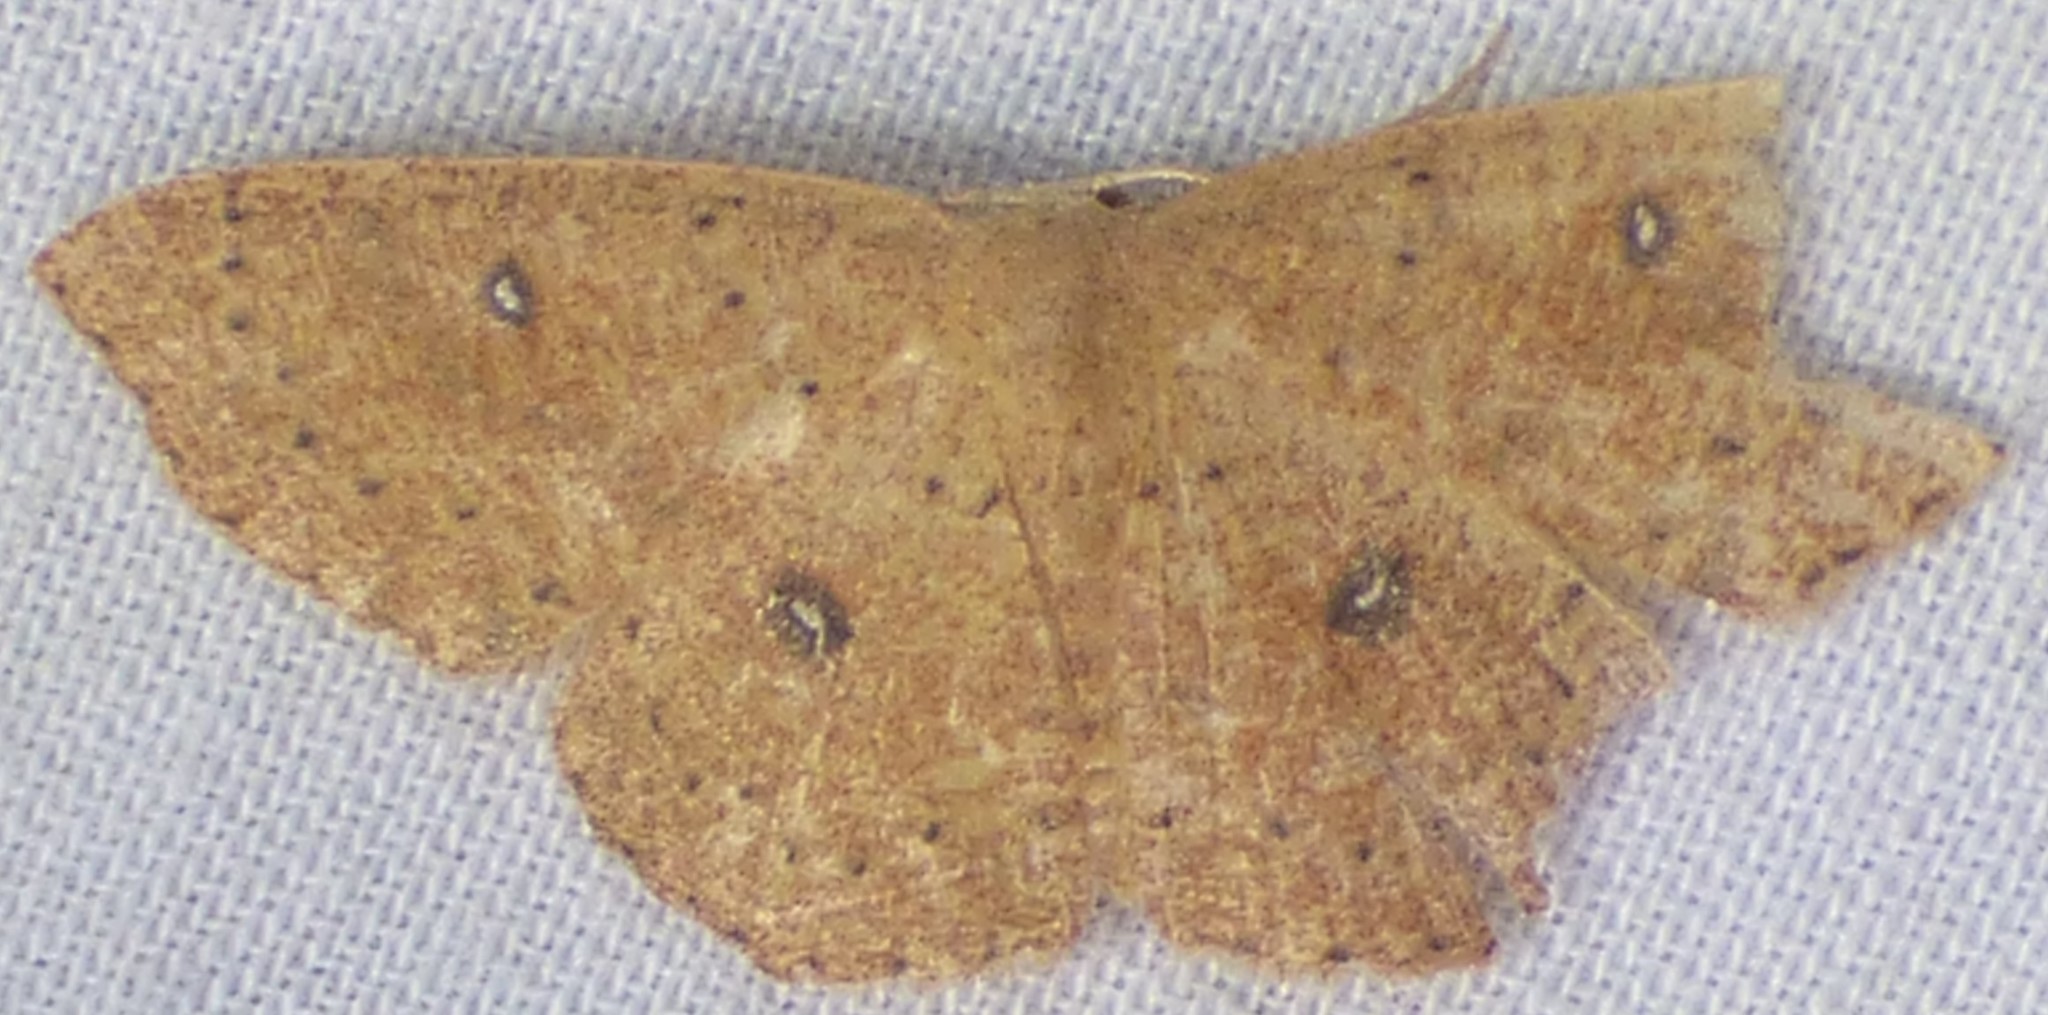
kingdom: Animalia
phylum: Arthropoda
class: Insecta
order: Lepidoptera
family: Geometridae
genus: Cyclophora
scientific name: Cyclophora packardi
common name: Packard's wave
